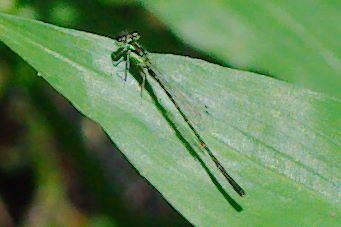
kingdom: Animalia
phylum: Arthropoda
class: Insecta
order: Odonata
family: Coenagrionidae
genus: Ischnura
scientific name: Ischnura posita
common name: Fragile forktail
